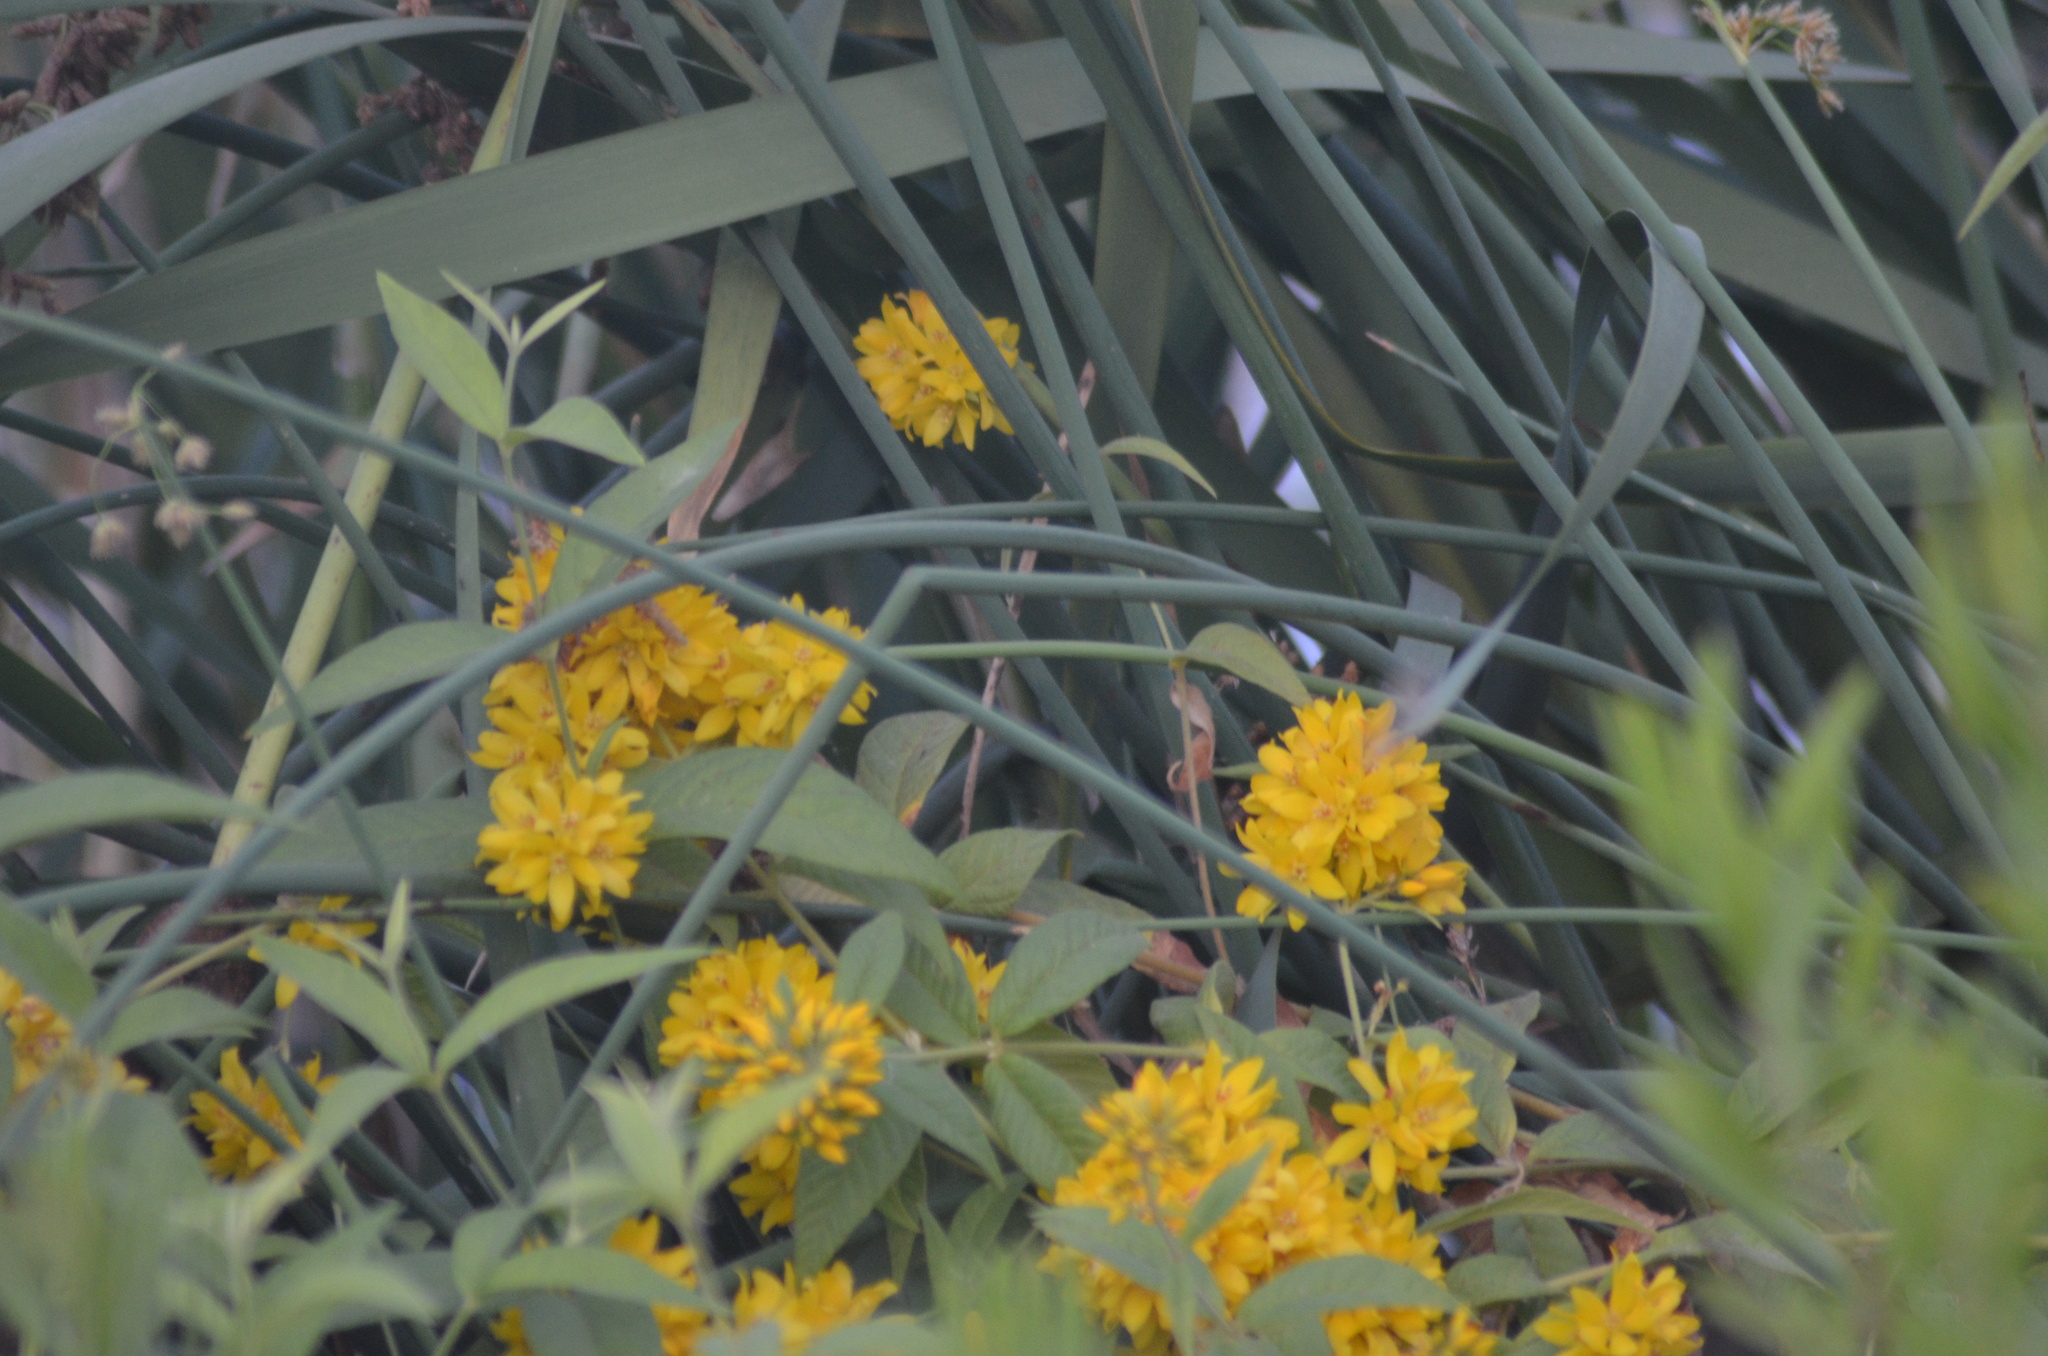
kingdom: Plantae
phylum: Tracheophyta
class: Magnoliopsida
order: Ericales
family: Primulaceae
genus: Lysimachia
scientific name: Lysimachia vulgaris
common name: Yellow loosestrife
